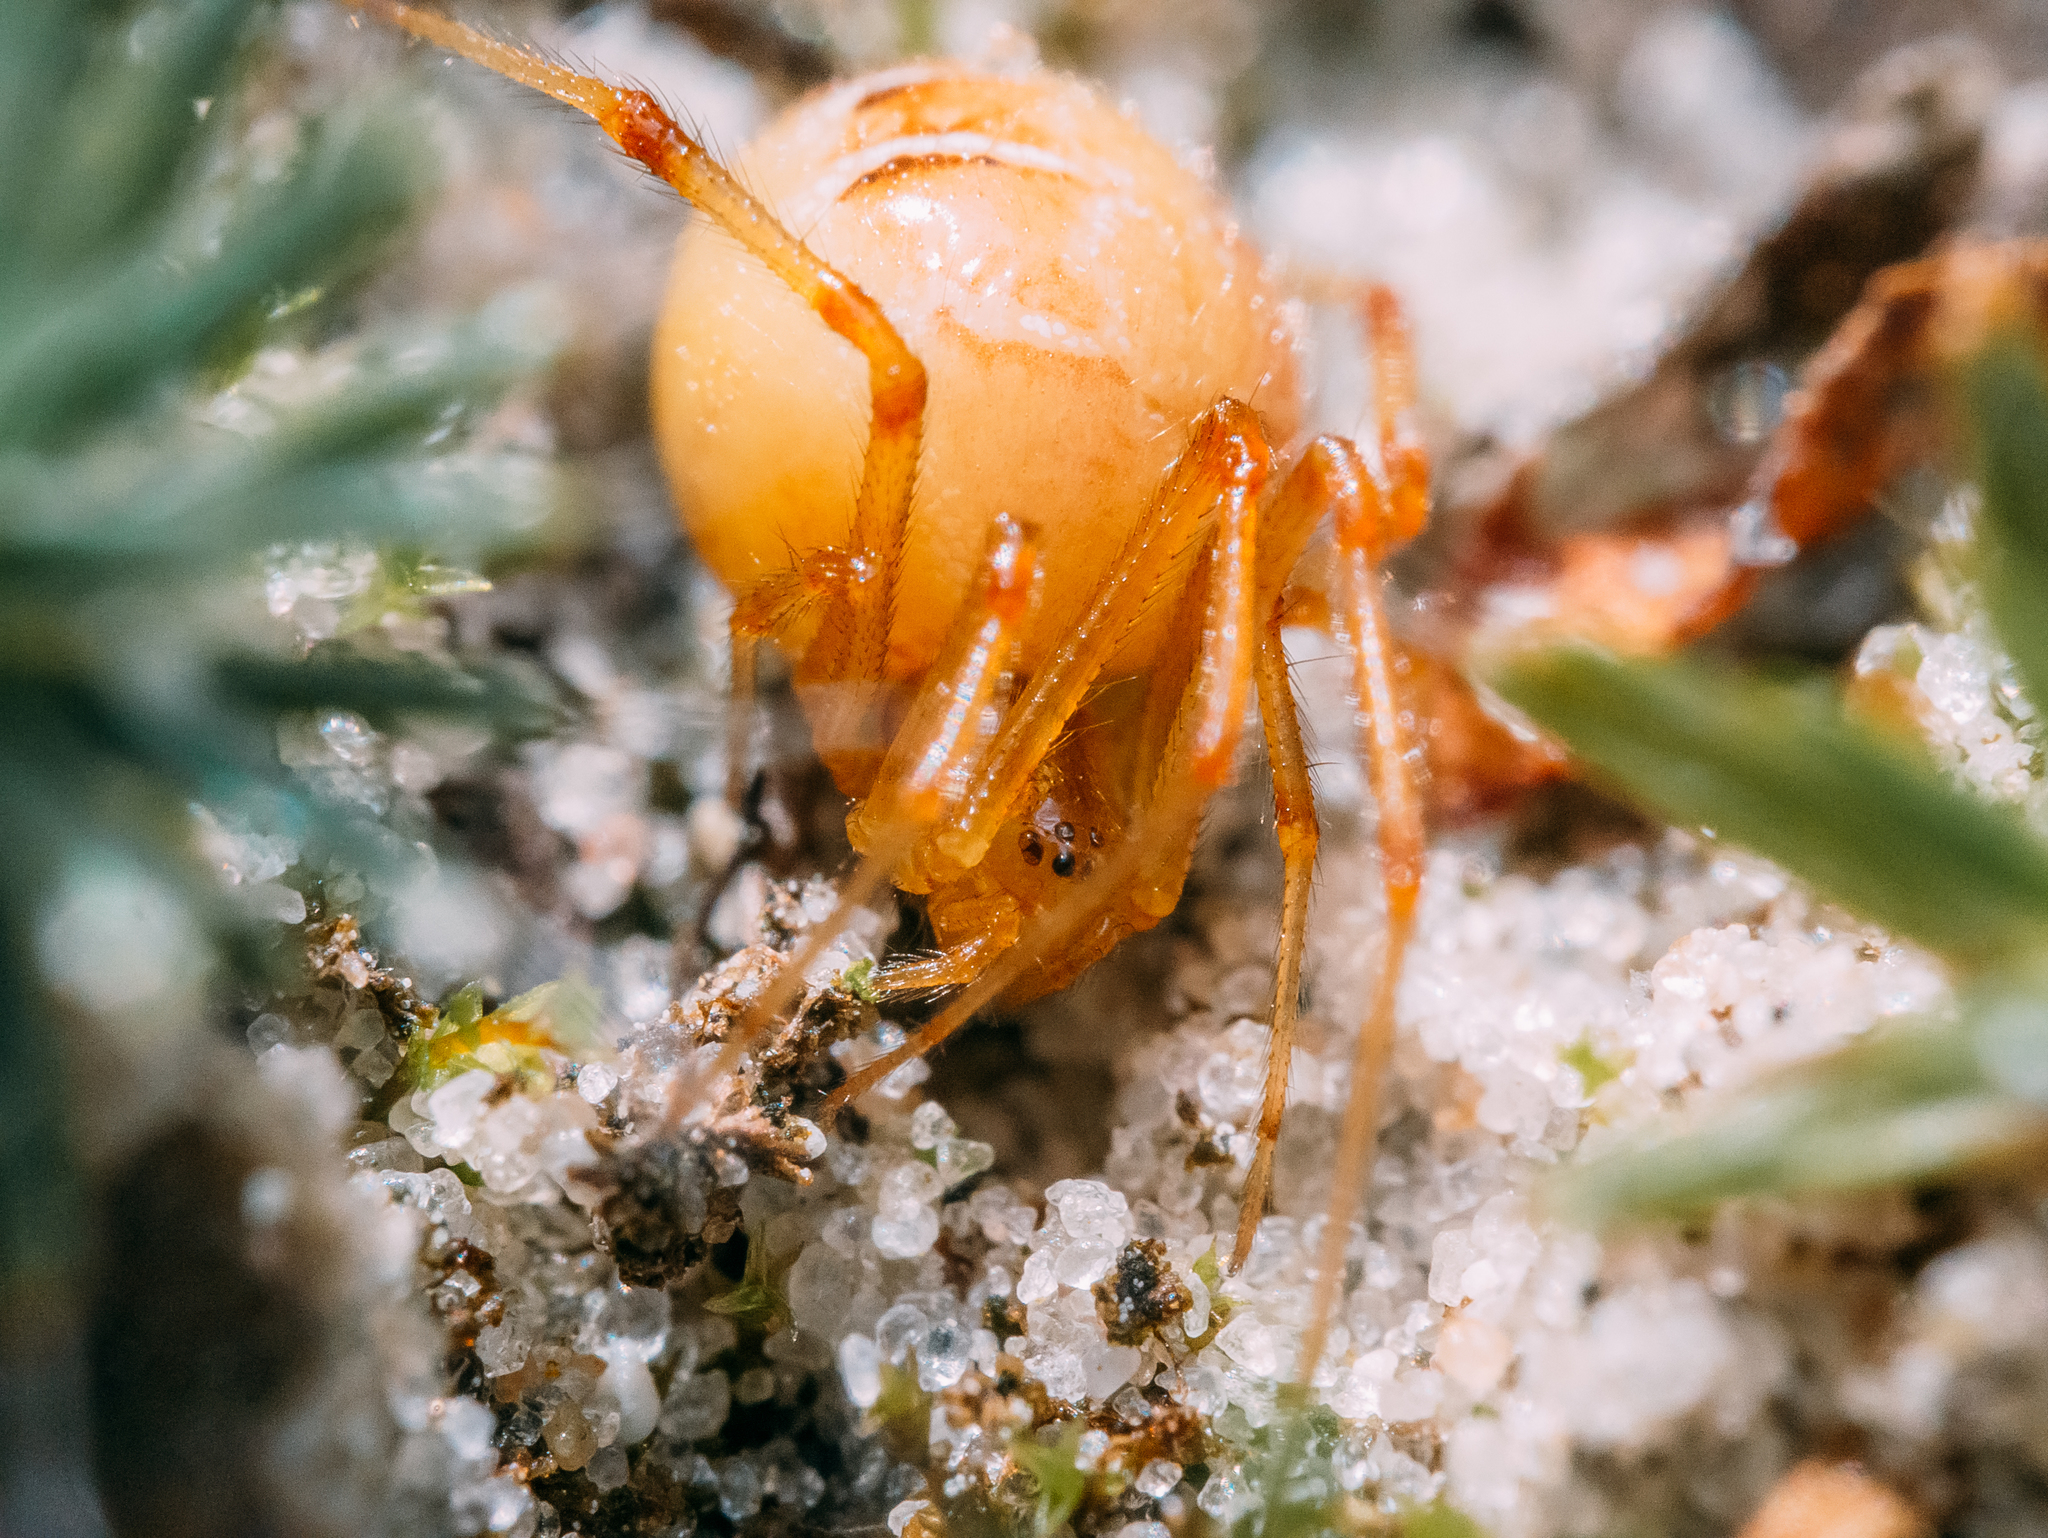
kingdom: Animalia
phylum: Arthropoda
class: Arachnida
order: Araneae
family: Theridiidae
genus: Phylloneta
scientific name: Phylloneta impressa
